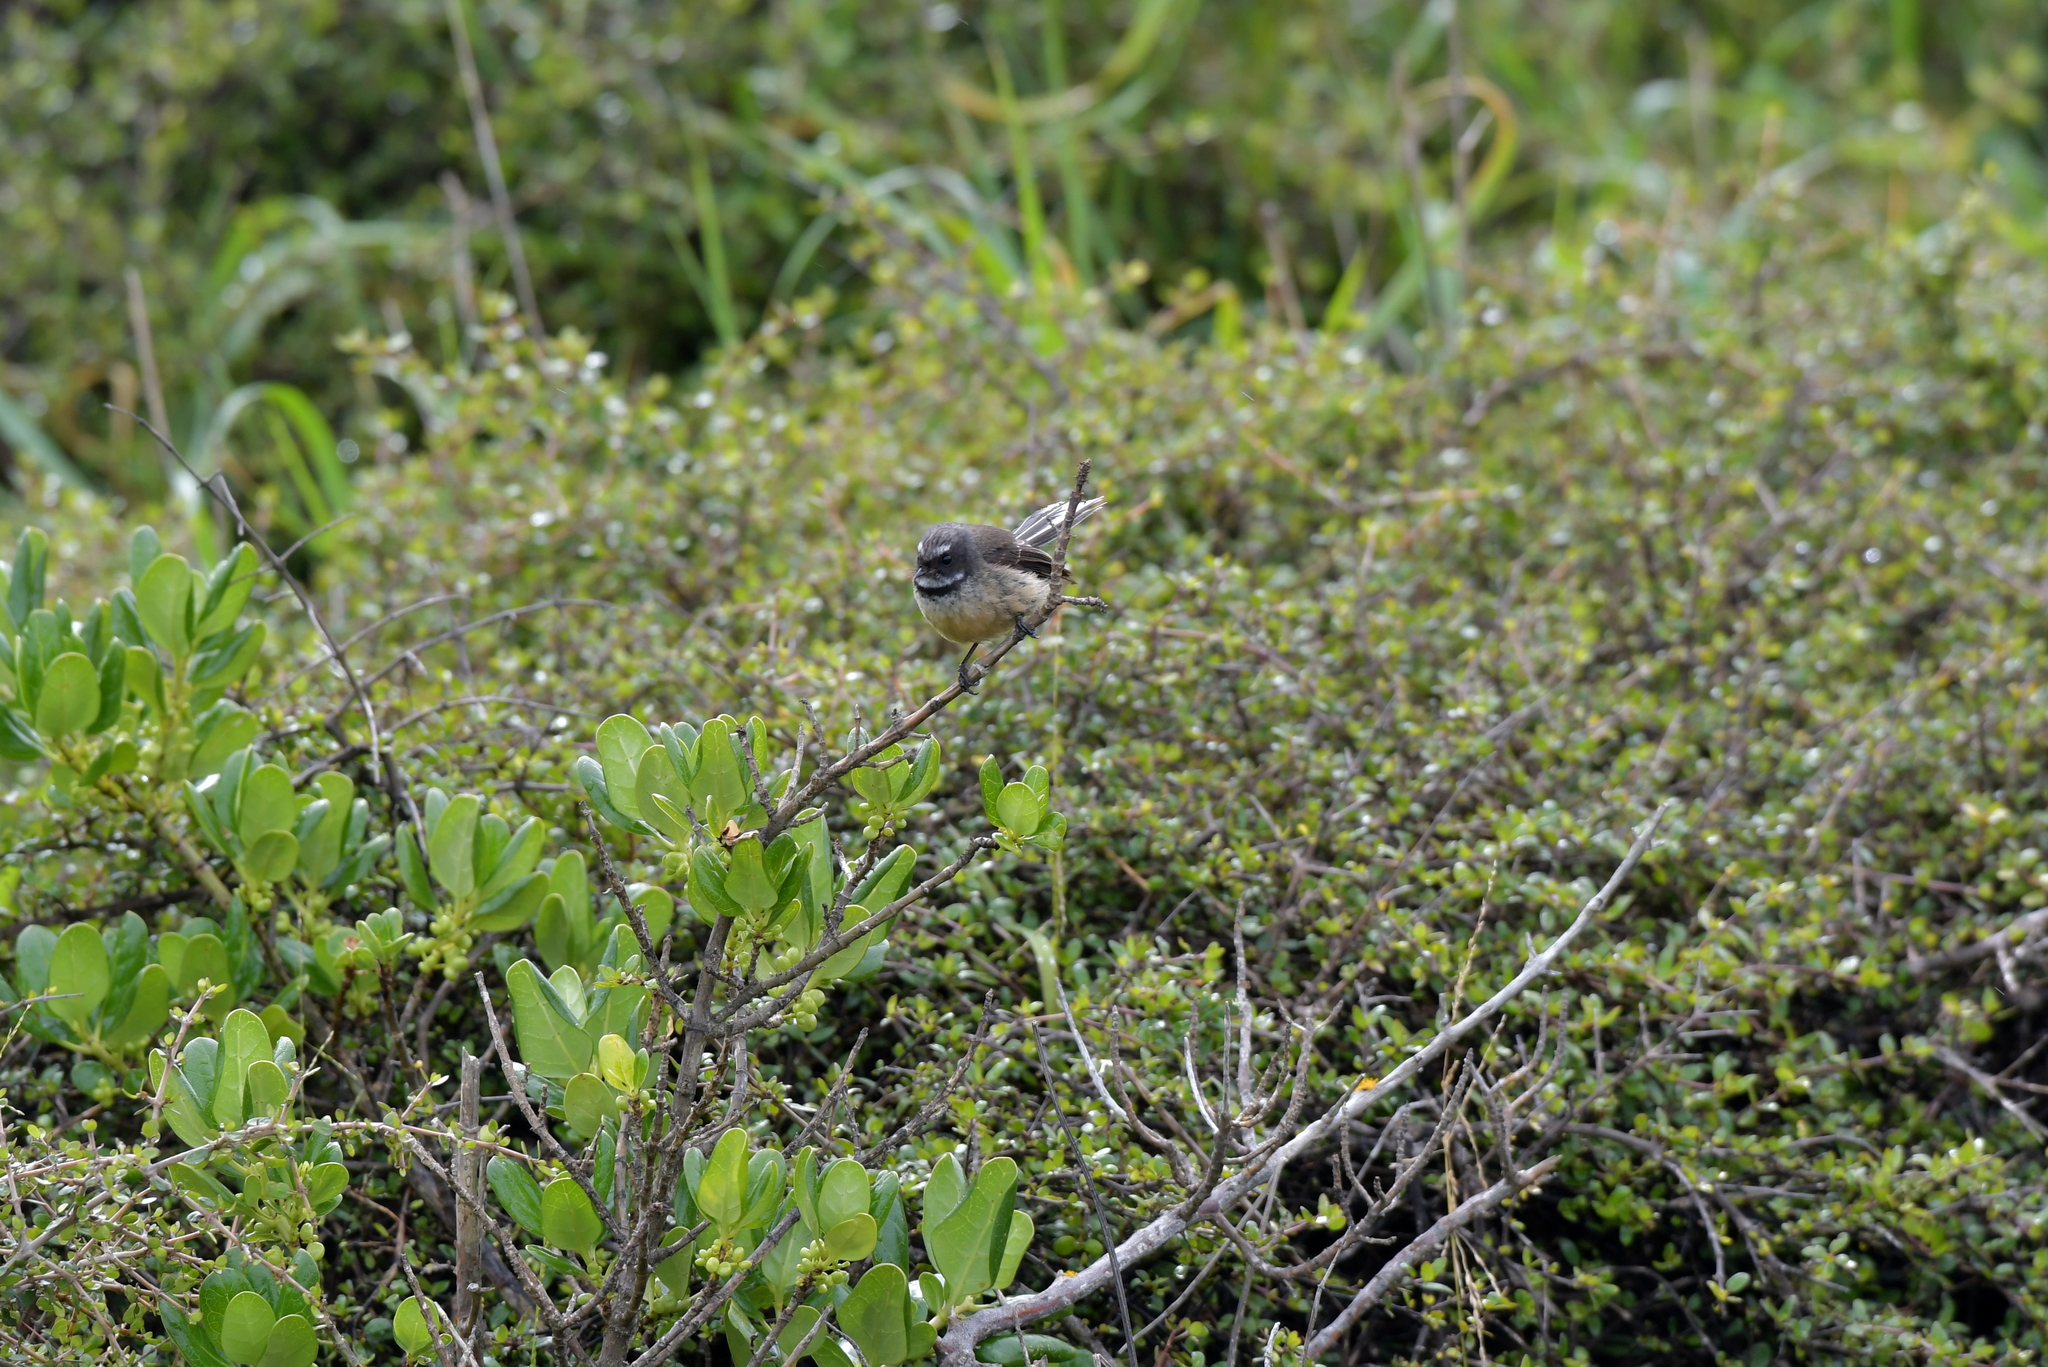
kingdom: Animalia
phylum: Chordata
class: Aves
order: Passeriformes
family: Rhipiduridae
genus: Rhipidura
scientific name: Rhipidura fuliginosa
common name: New zealand fantail
